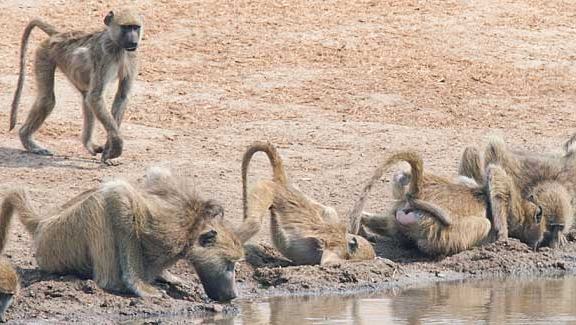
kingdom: Animalia
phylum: Chordata
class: Mammalia
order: Primates
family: Cercopithecidae
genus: Papio
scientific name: Papio ursinus
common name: Chacma baboon
